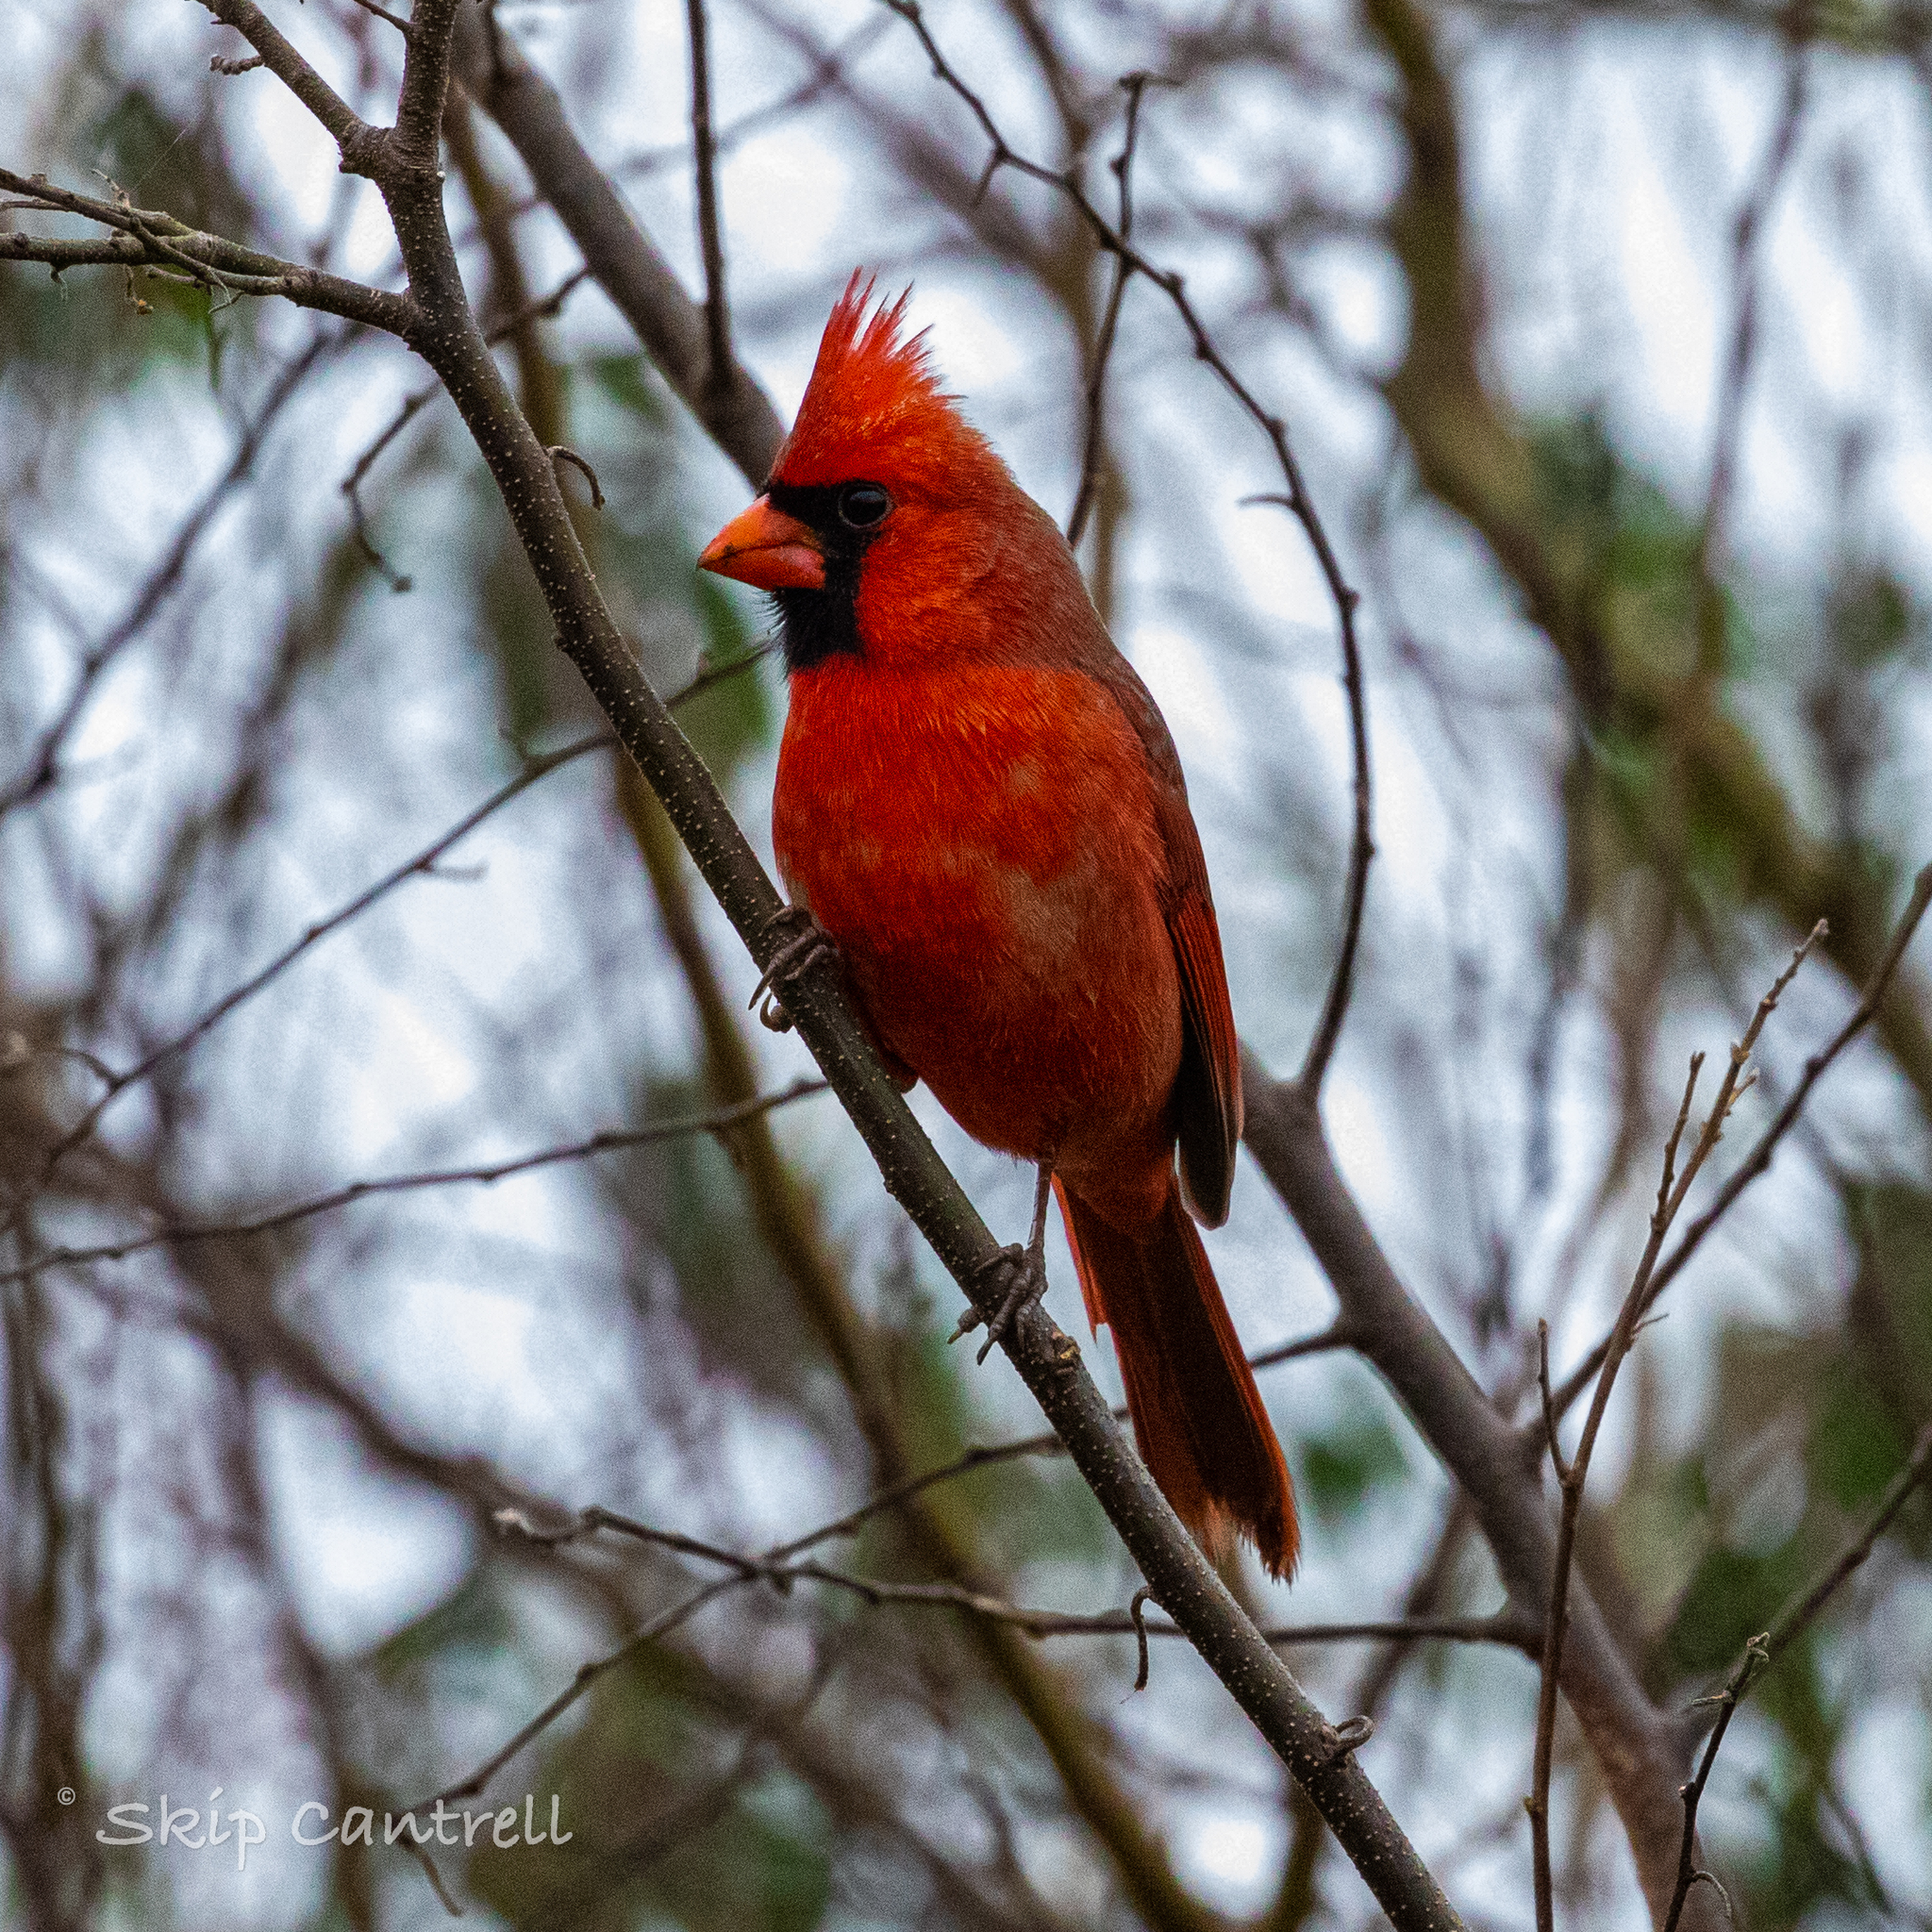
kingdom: Animalia
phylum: Chordata
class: Aves
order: Passeriformes
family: Cardinalidae
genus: Cardinalis
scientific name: Cardinalis cardinalis
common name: Northern cardinal
